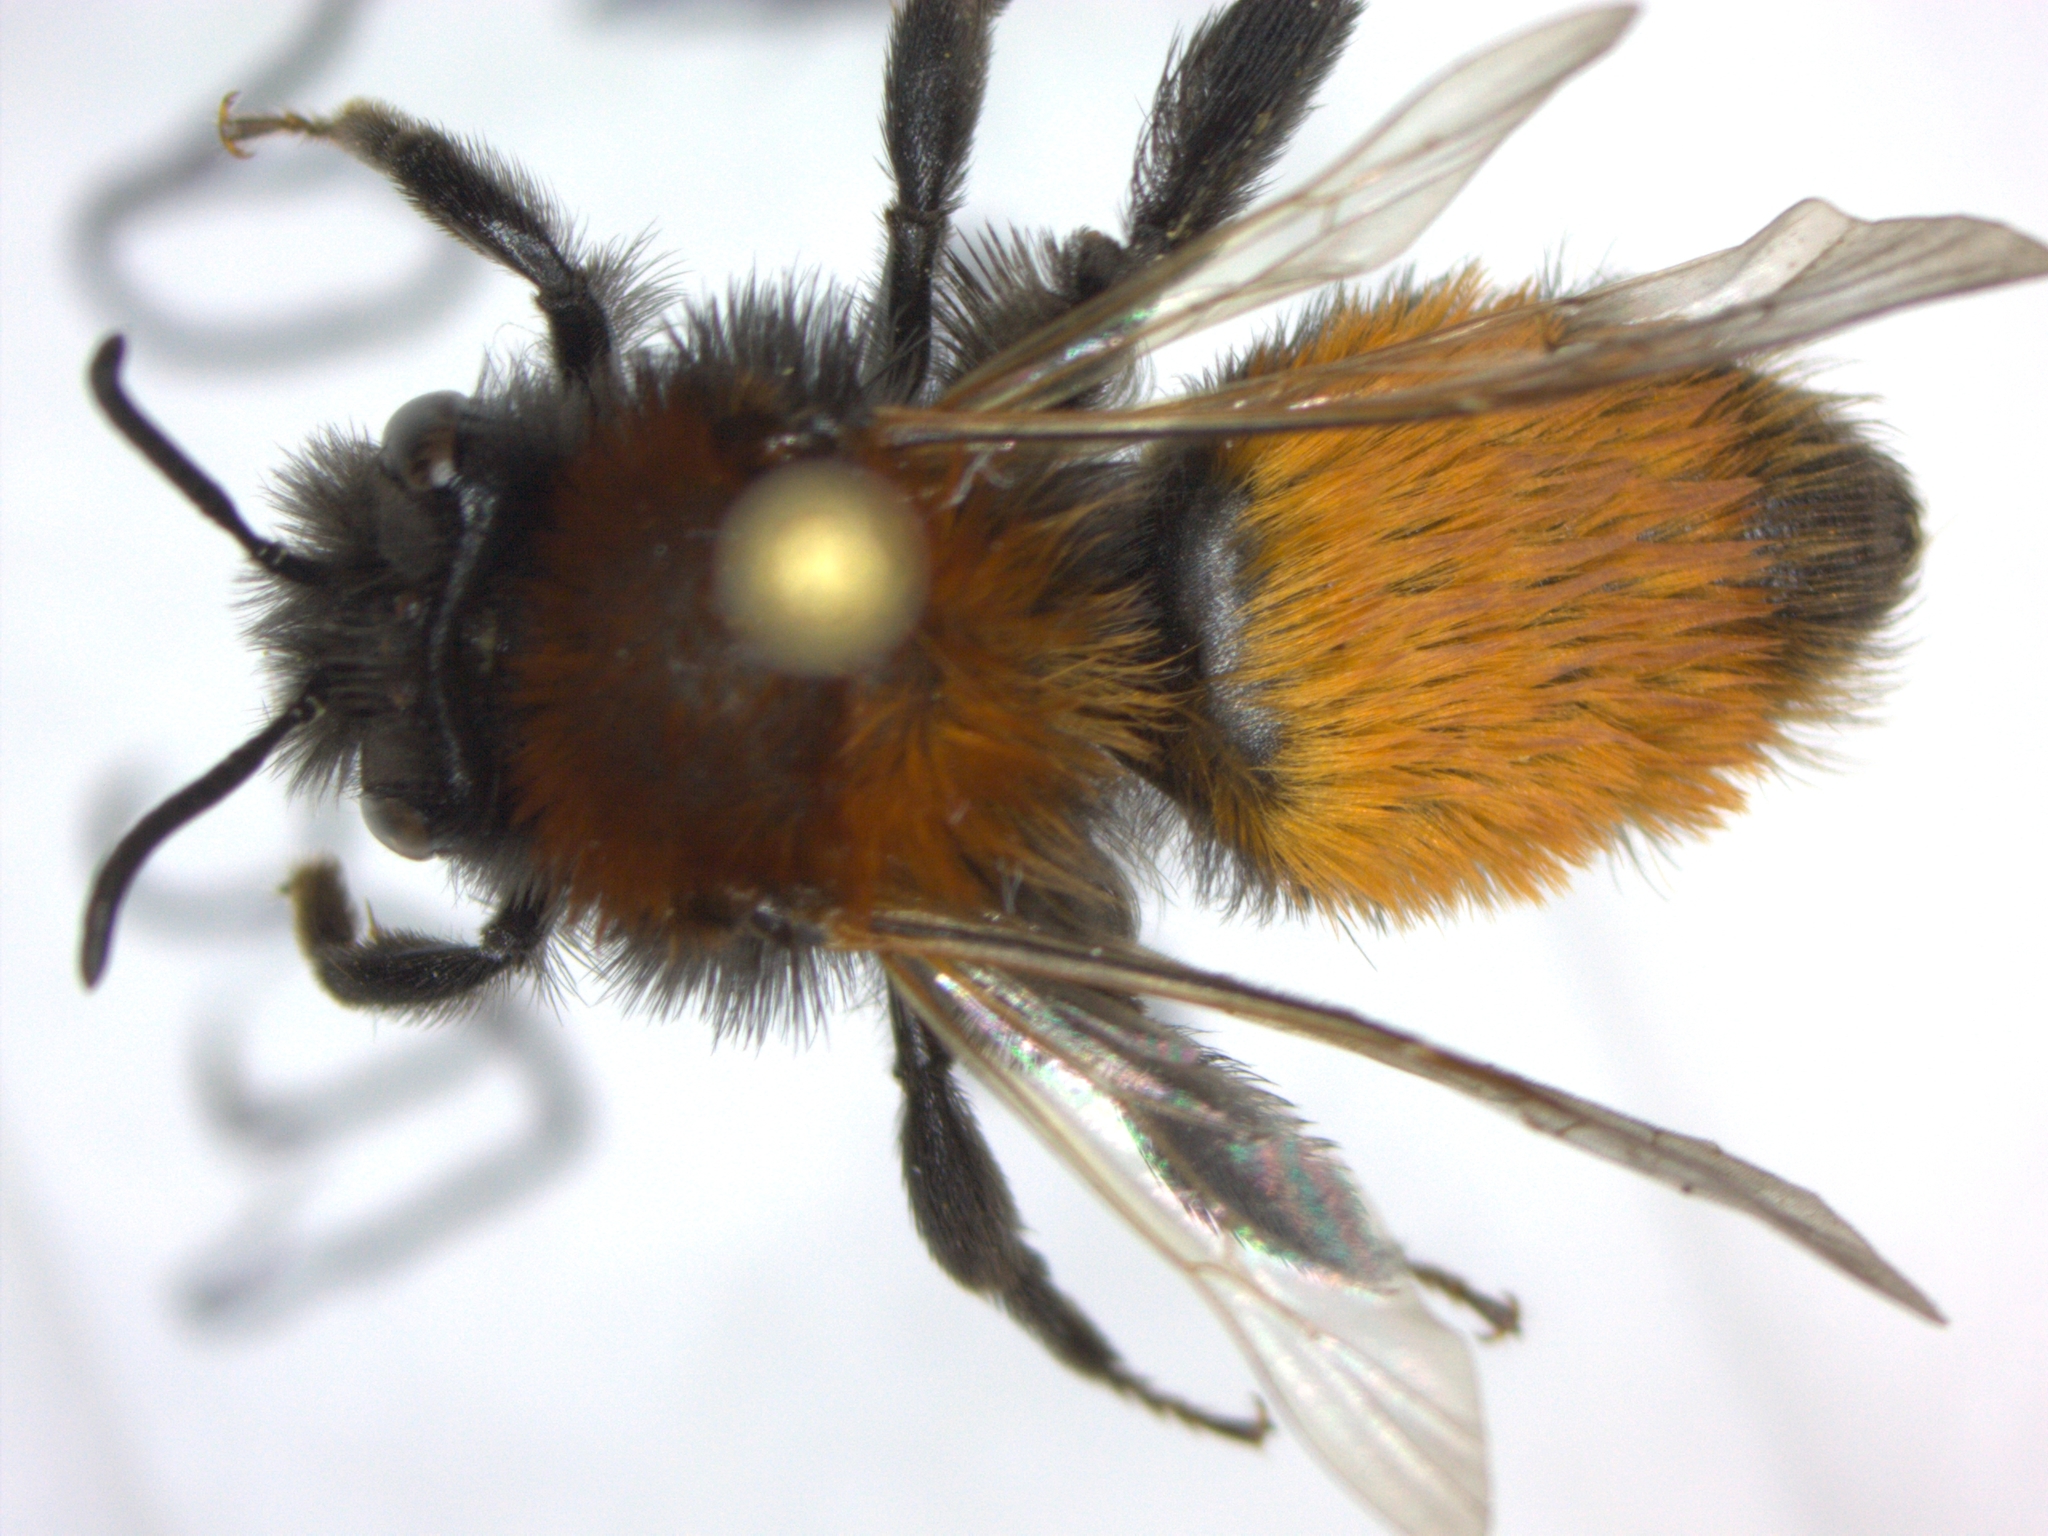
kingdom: Animalia
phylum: Arthropoda
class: Insecta
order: Hymenoptera
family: Andrenidae
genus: Andrena
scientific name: Andrena fulva
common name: Tawny mining bee
